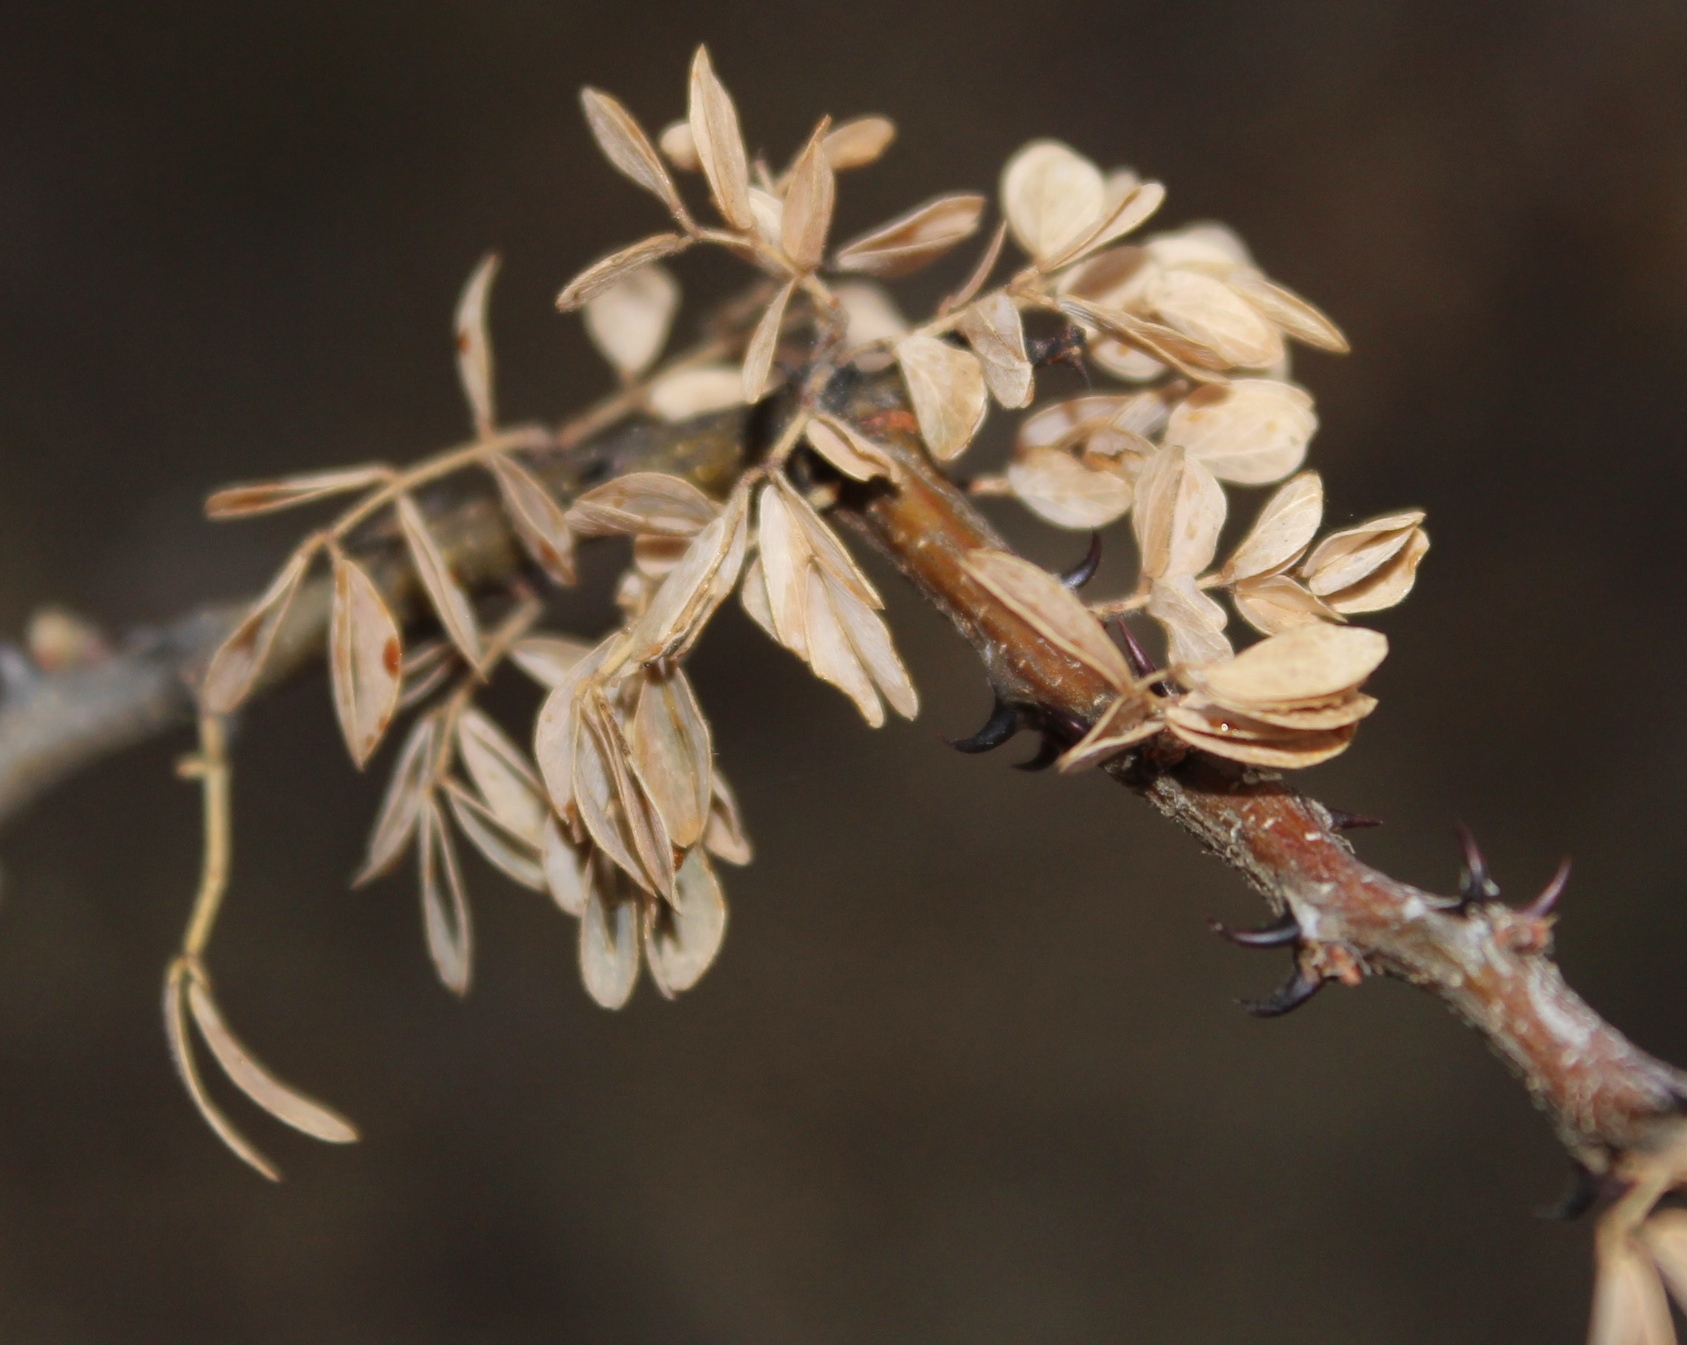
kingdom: Plantae
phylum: Tracheophyta
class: Magnoliopsida
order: Fabales
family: Fabaceae
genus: Senegalia
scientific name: Senegalia mellifera
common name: Hookthorn
